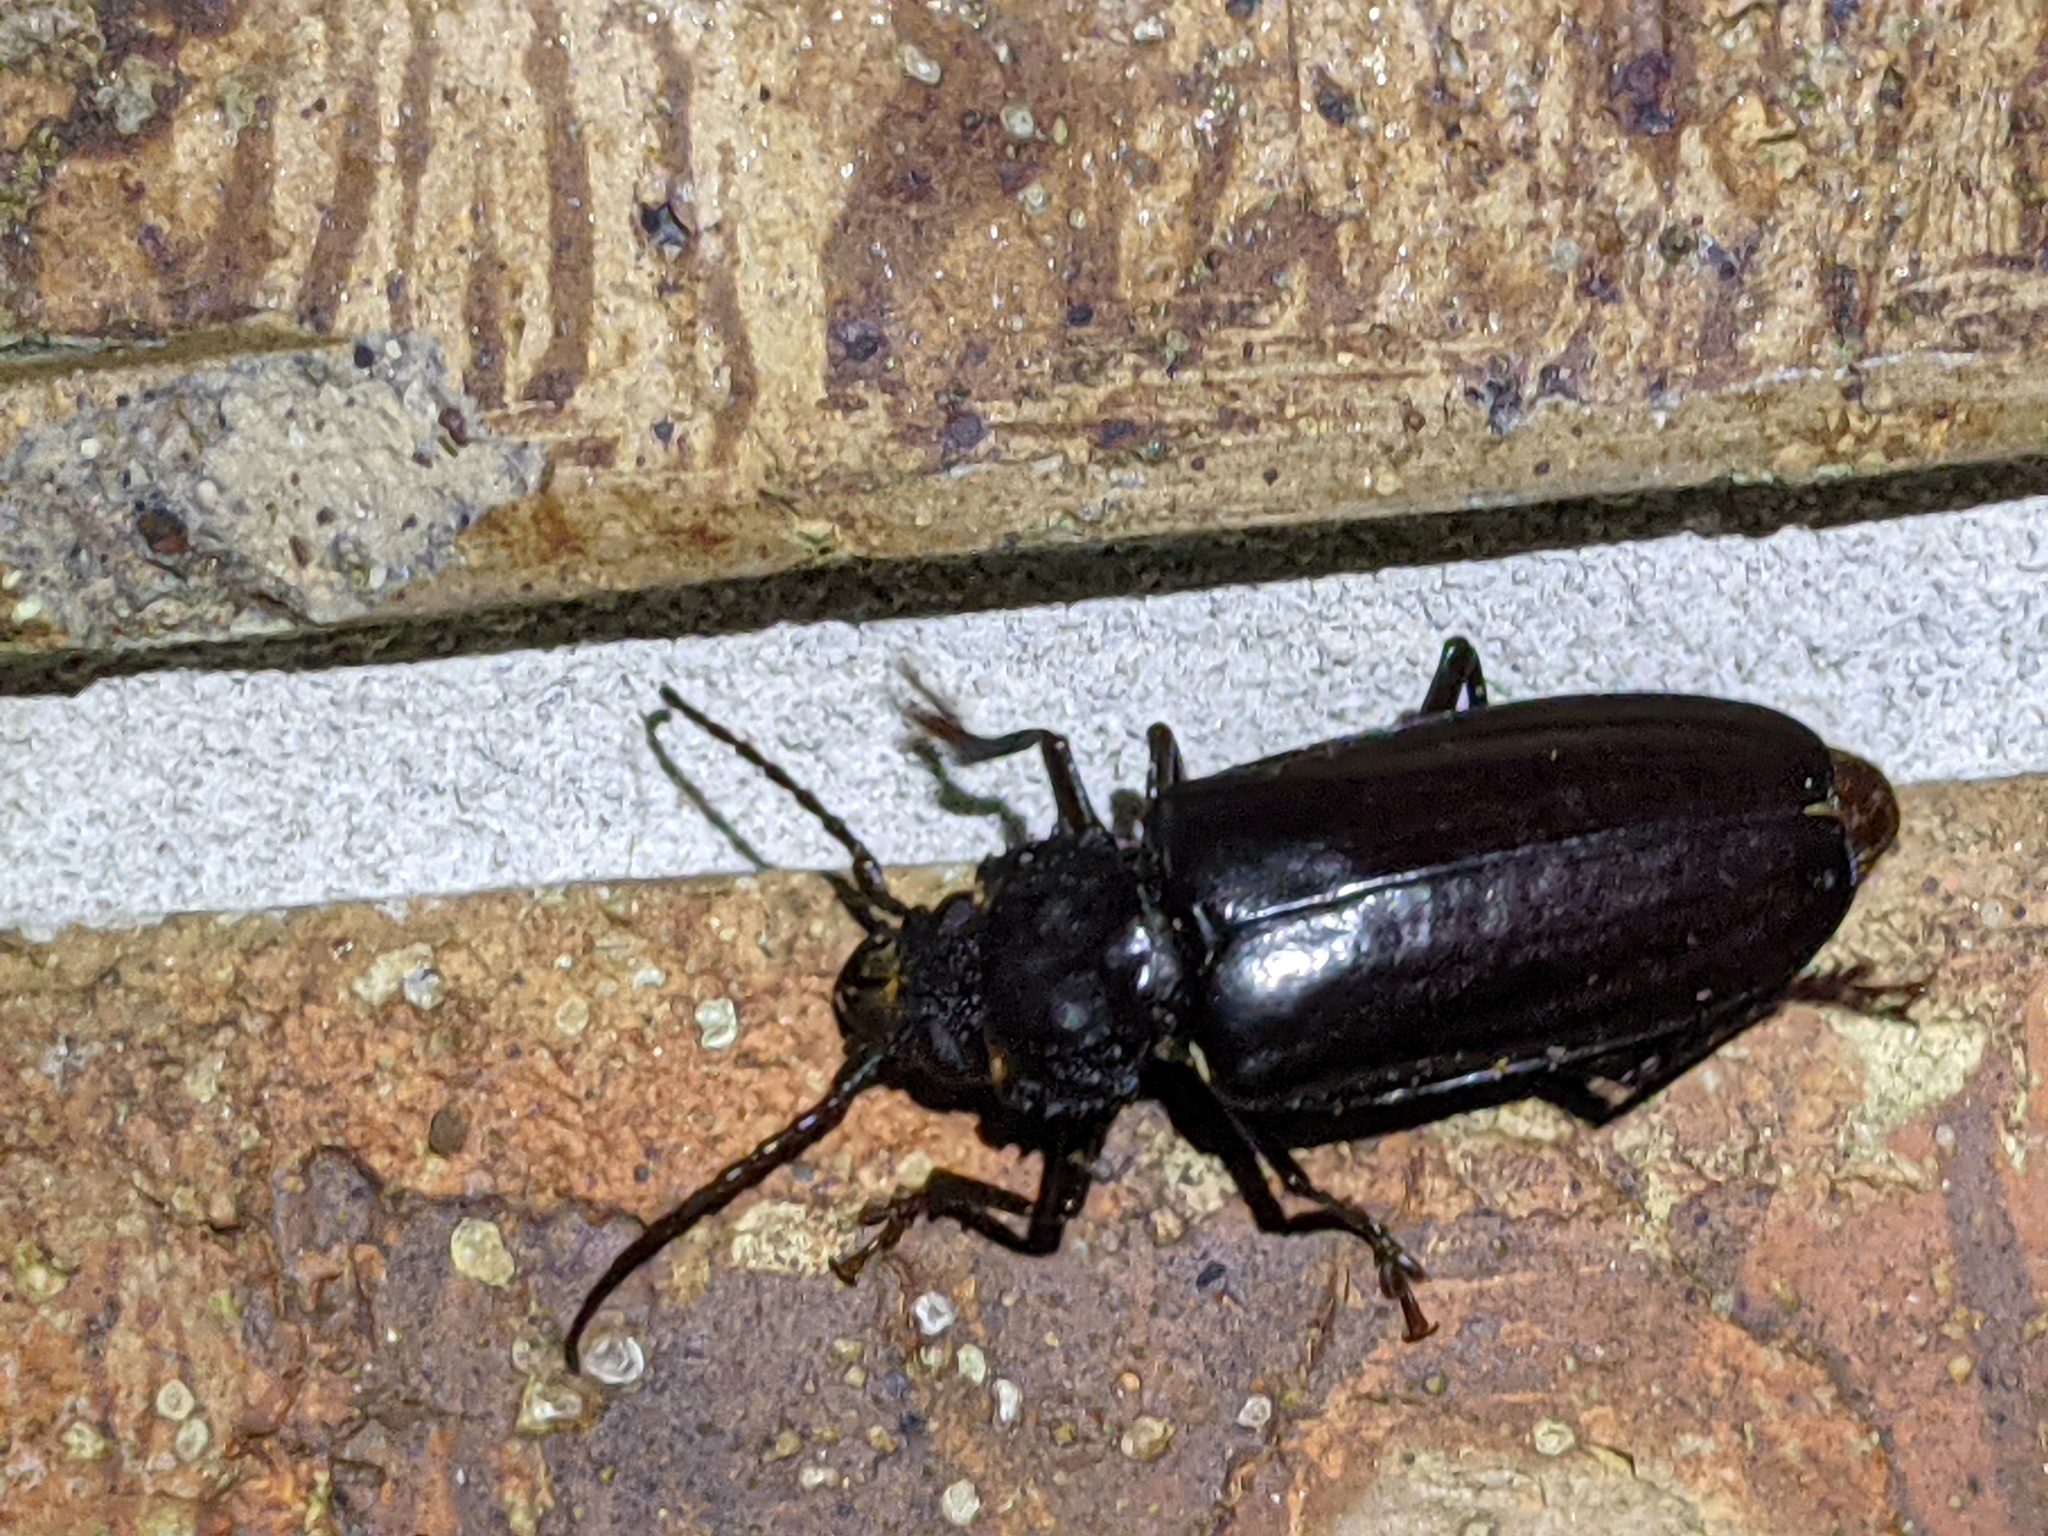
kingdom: Animalia
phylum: Arthropoda
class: Insecta
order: Coleoptera
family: Cerambycidae
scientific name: Cerambycidae
